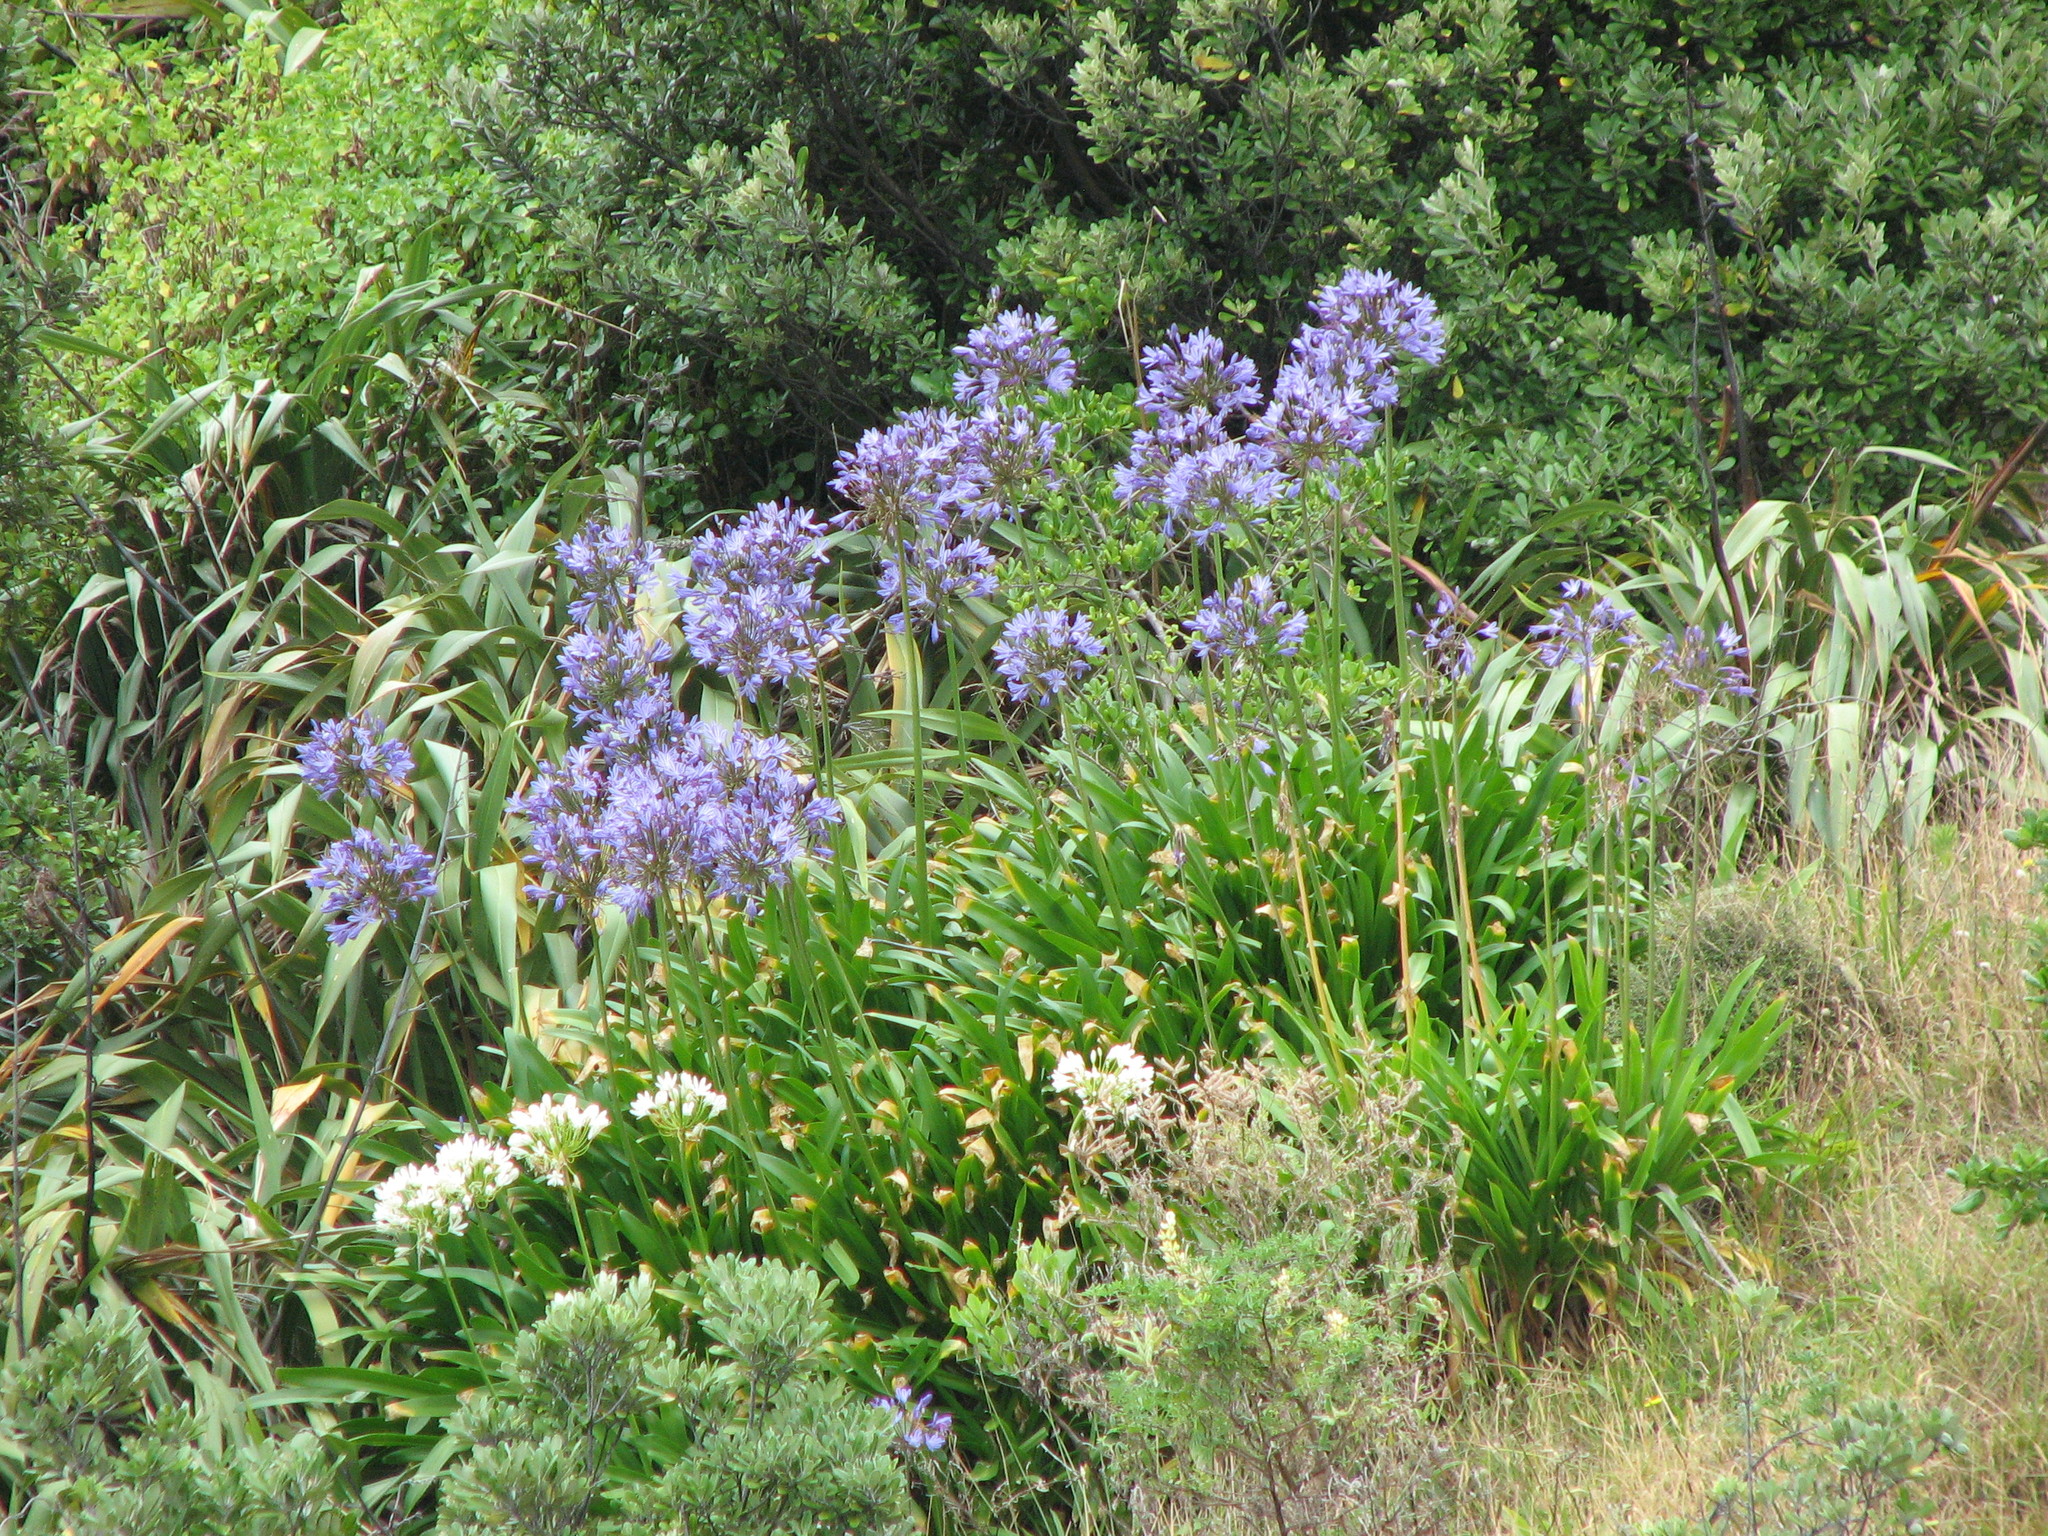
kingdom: Plantae
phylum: Tracheophyta
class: Liliopsida
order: Asparagales
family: Amaryllidaceae
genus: Agapanthus
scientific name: Agapanthus praecox
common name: African-lily
